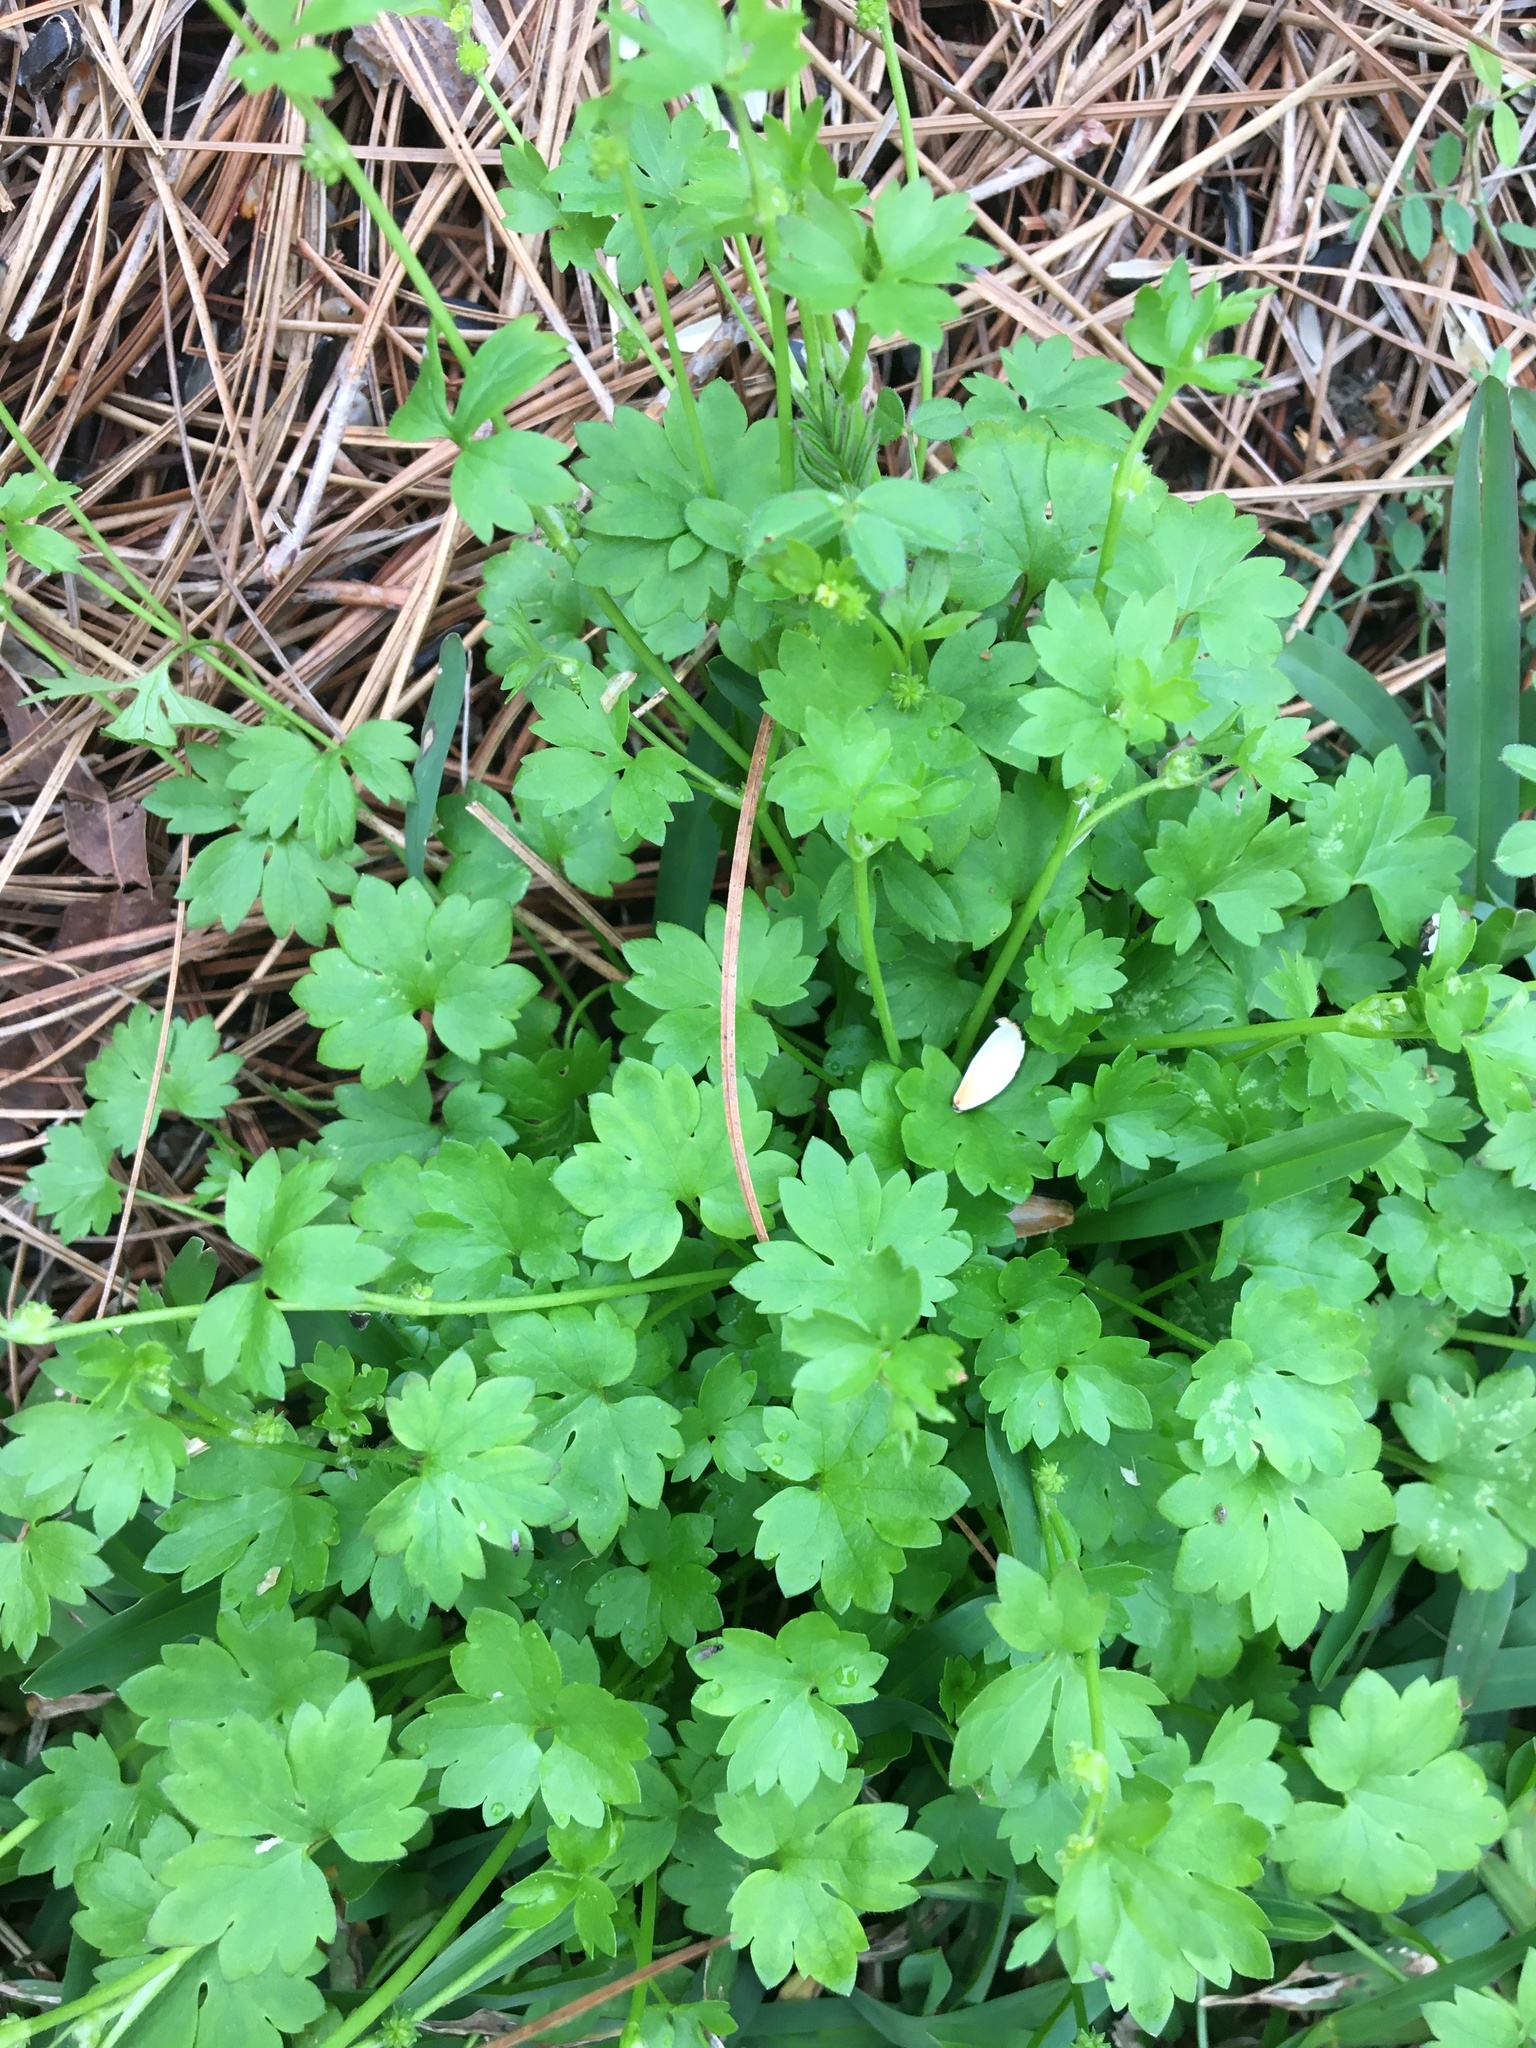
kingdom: Plantae
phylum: Tracheophyta
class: Magnoliopsida
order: Ranunculales
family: Ranunculaceae
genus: Ranunculus
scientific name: Ranunculus platensis
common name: Prairie buttercup
